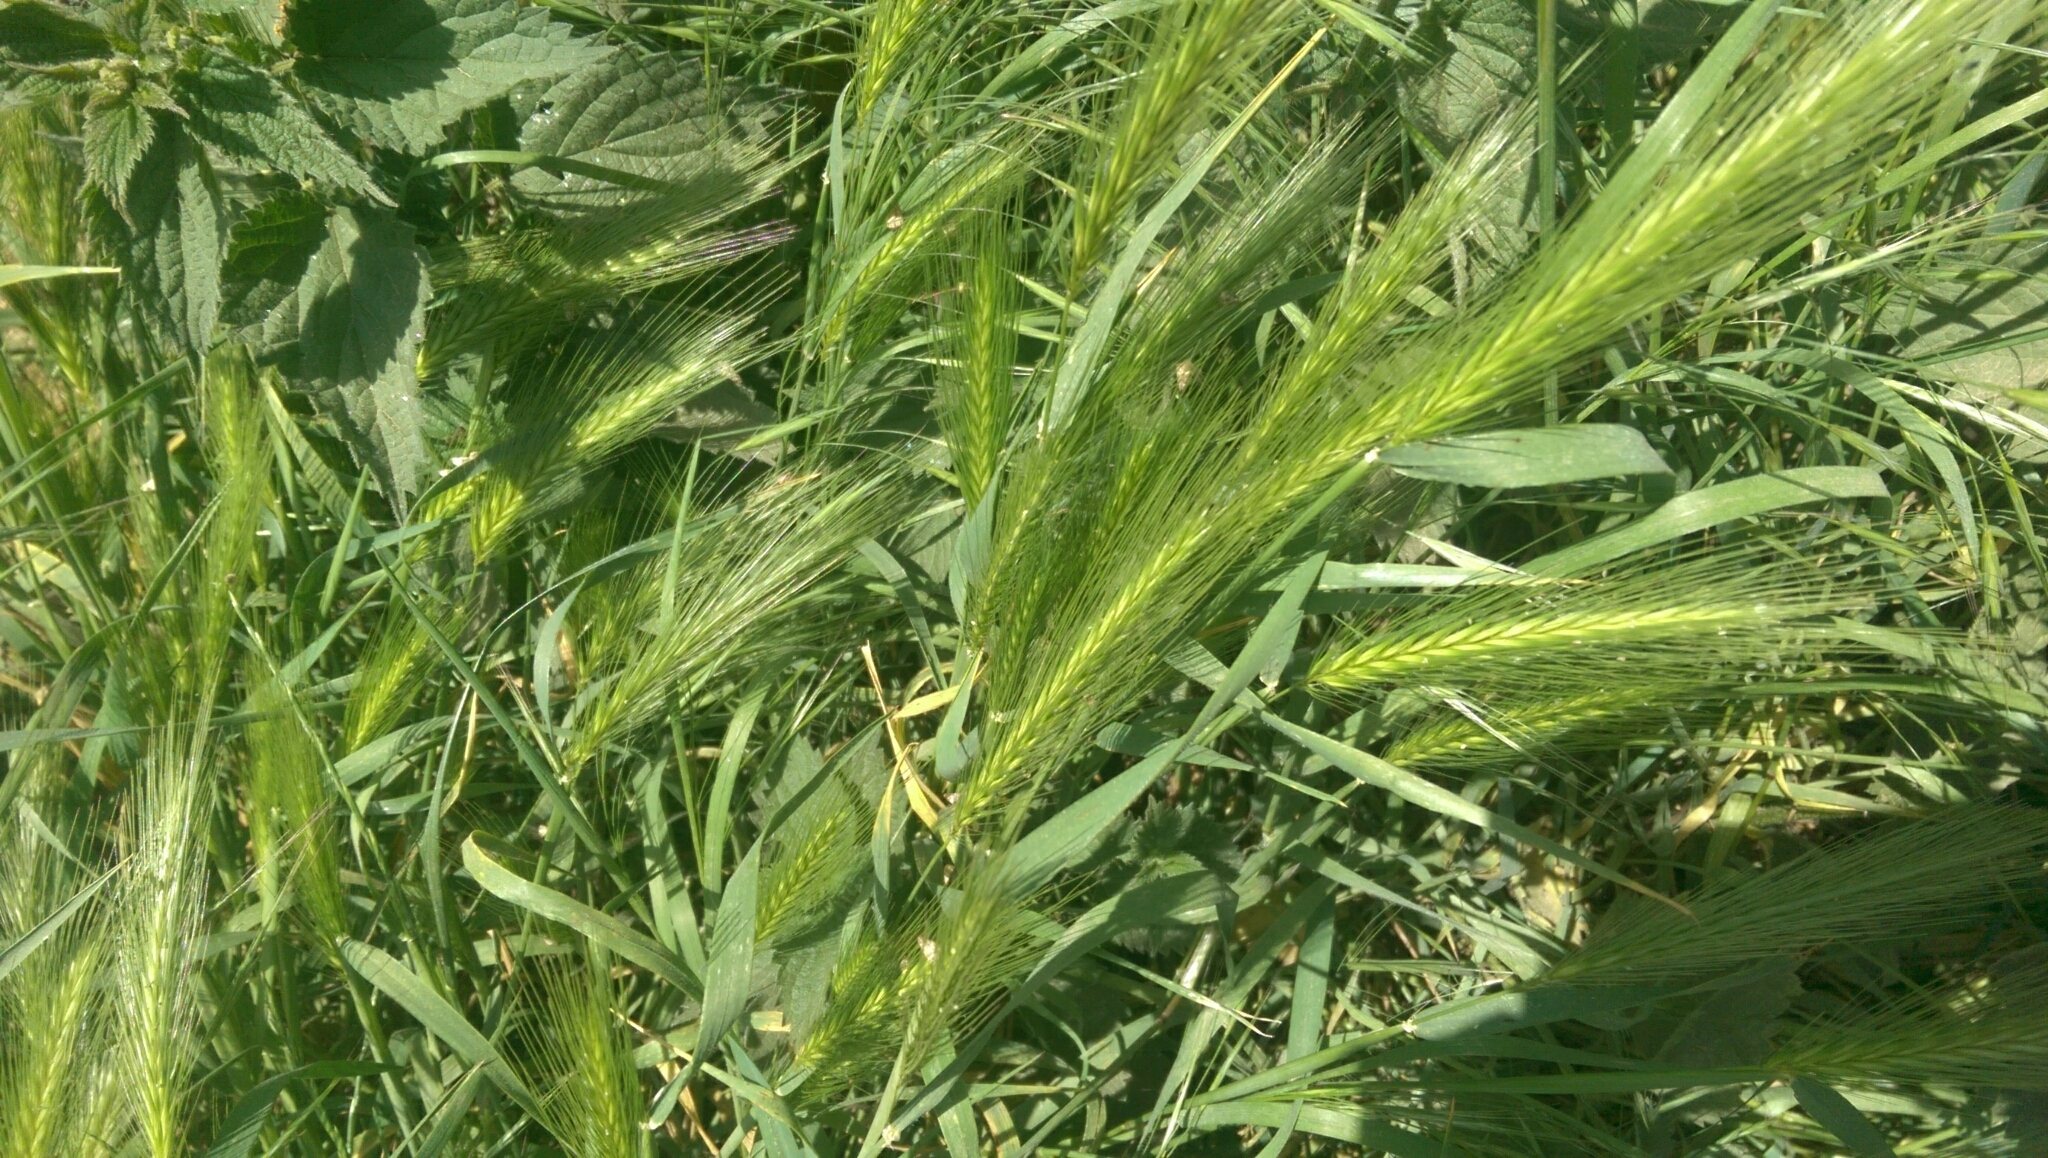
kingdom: Plantae
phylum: Tracheophyta
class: Liliopsida
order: Poales
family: Poaceae
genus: Hordeum
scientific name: Hordeum murinum
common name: Wall barley
